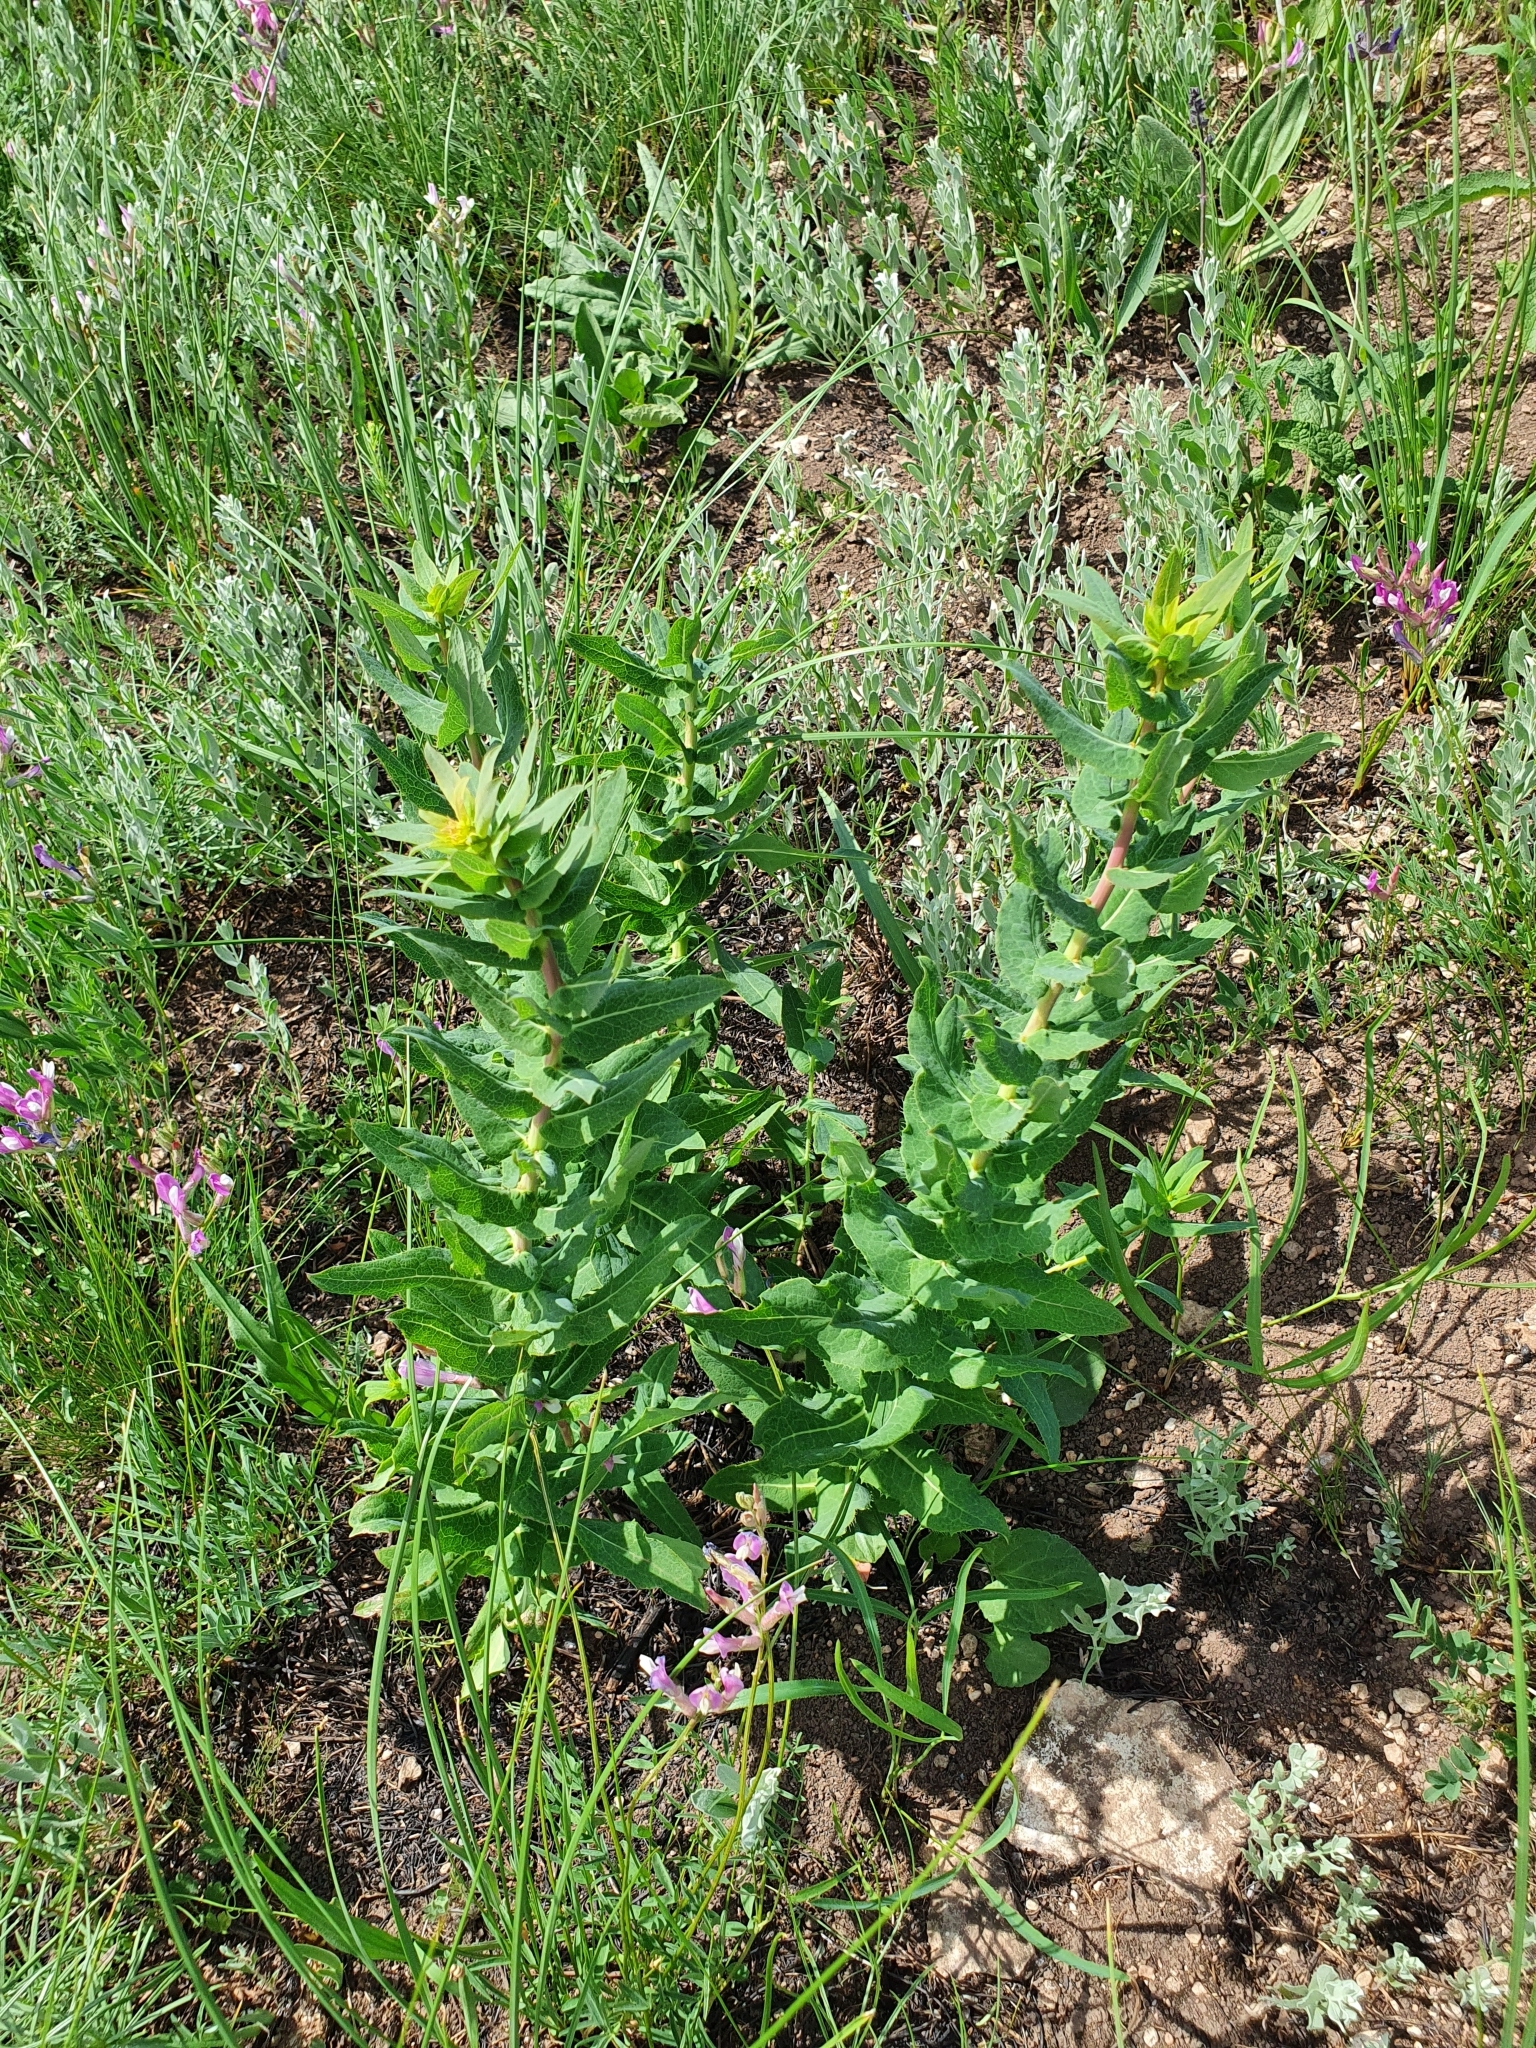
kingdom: Plantae
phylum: Tracheophyta
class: Magnoliopsida
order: Asterales
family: Asteraceae
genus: Hieracium
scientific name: Hieracium virosum
